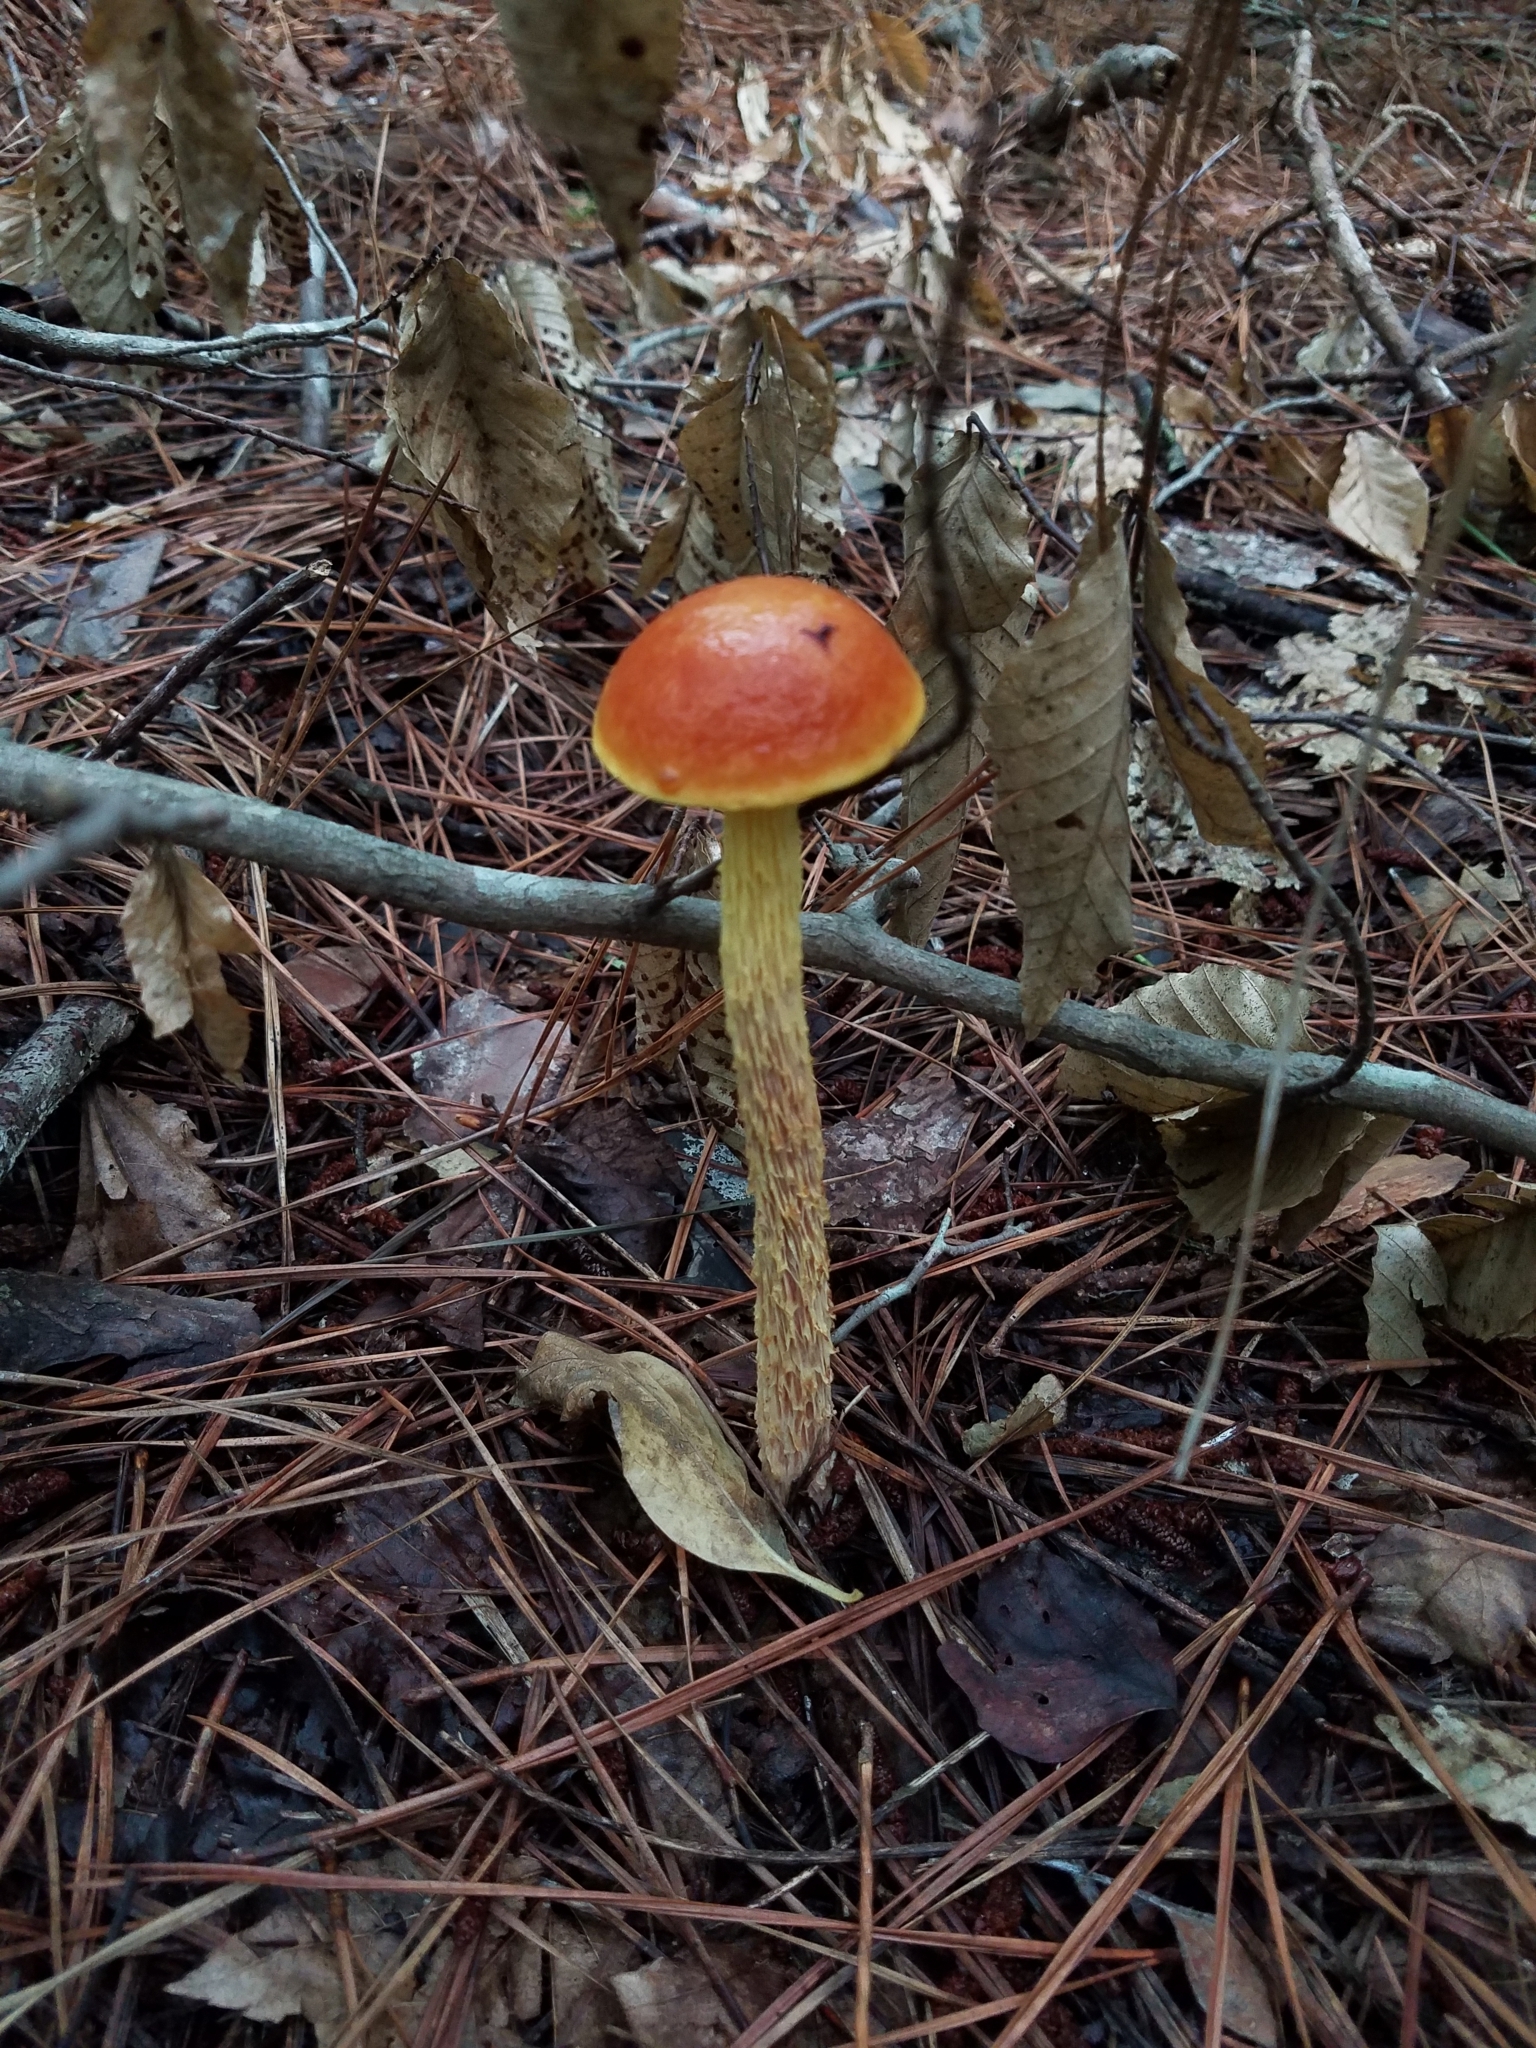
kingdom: Fungi
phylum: Basidiomycota
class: Agaricomycetes
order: Boletales
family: Boletaceae
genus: Aureoboletus
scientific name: Aureoboletus betula
